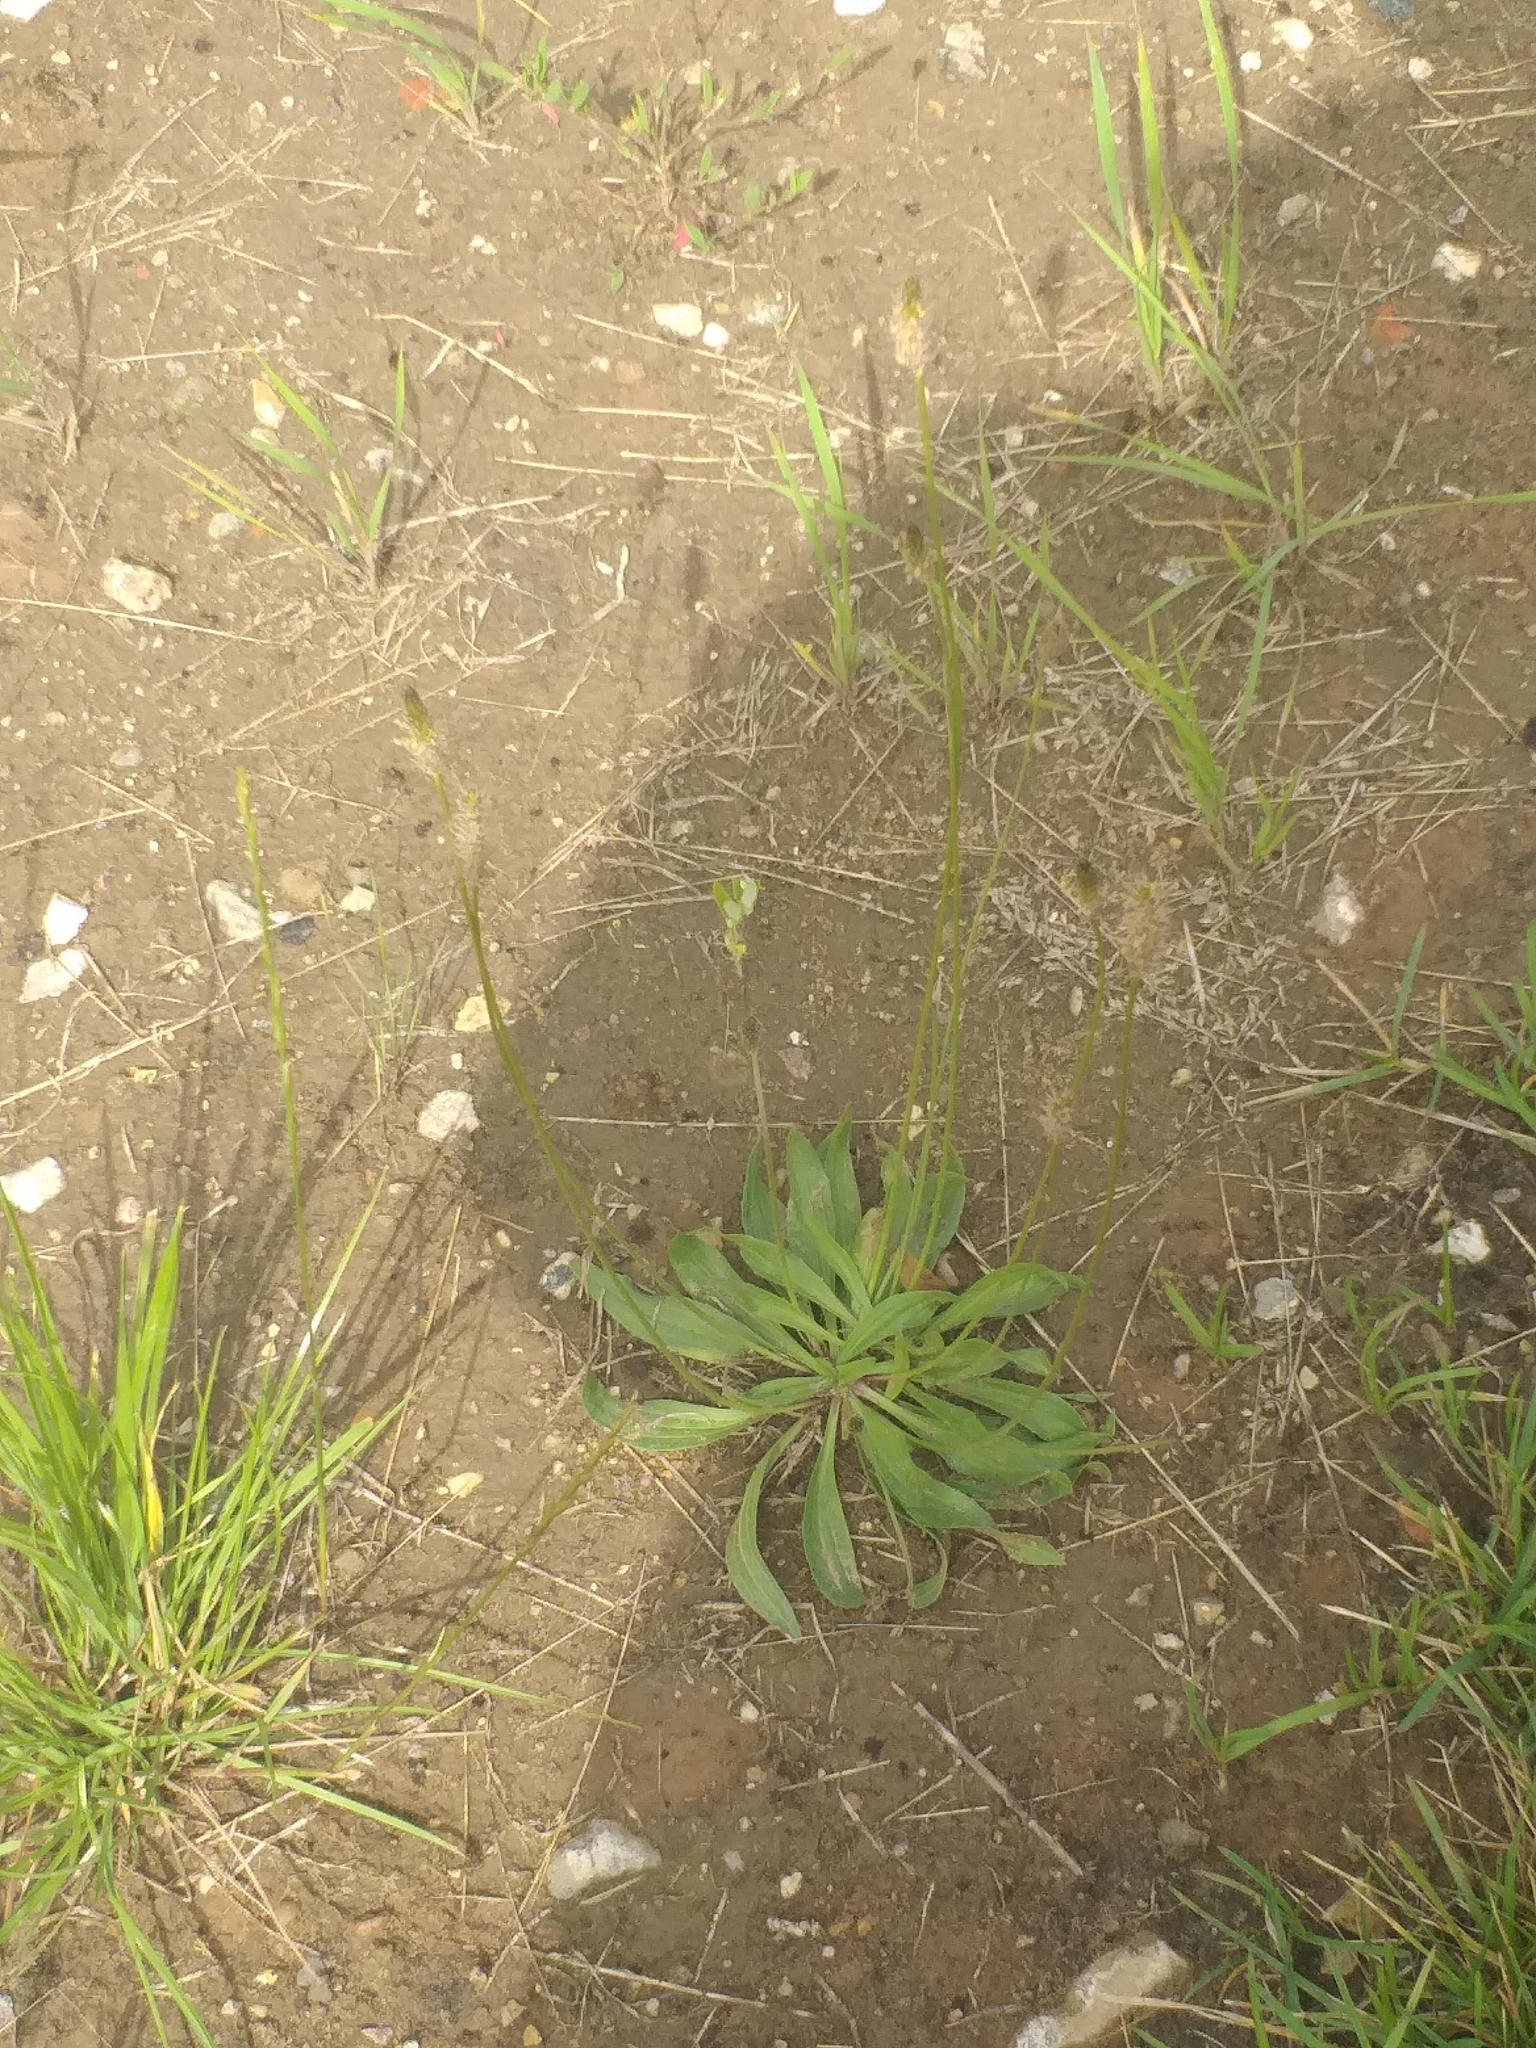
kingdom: Plantae
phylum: Tracheophyta
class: Magnoliopsida
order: Lamiales
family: Plantaginaceae
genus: Plantago
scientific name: Plantago lanceolata
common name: Ribwort plantain
